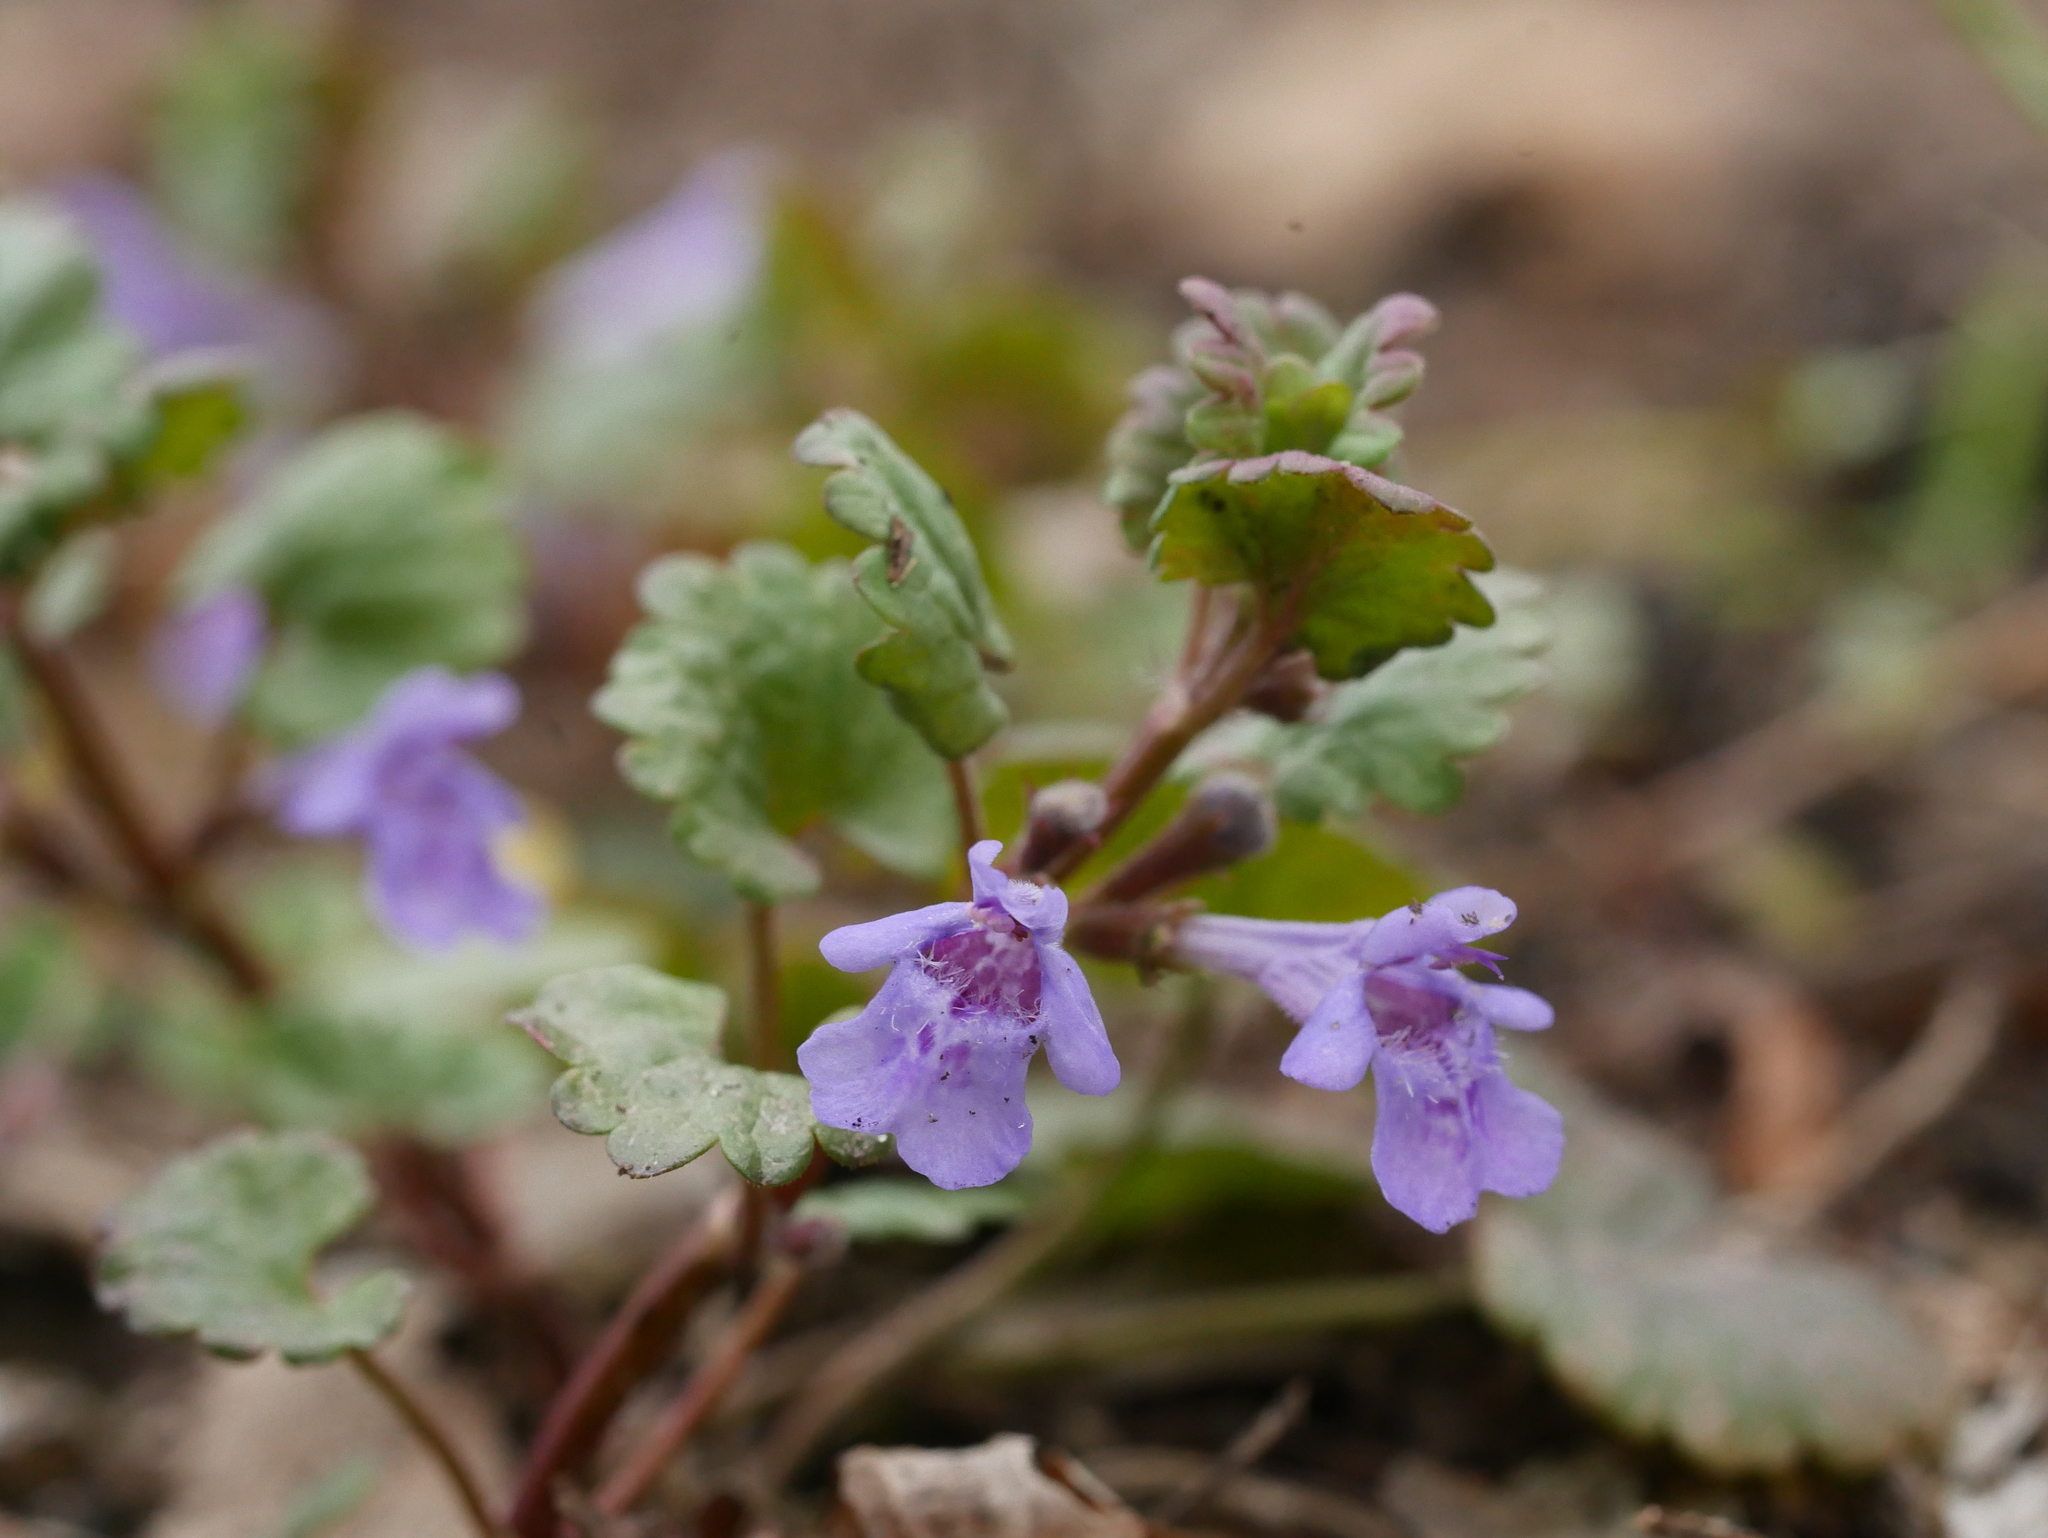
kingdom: Plantae
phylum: Tracheophyta
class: Magnoliopsida
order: Lamiales
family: Lamiaceae
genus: Glechoma
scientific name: Glechoma hederacea
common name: Ground ivy
